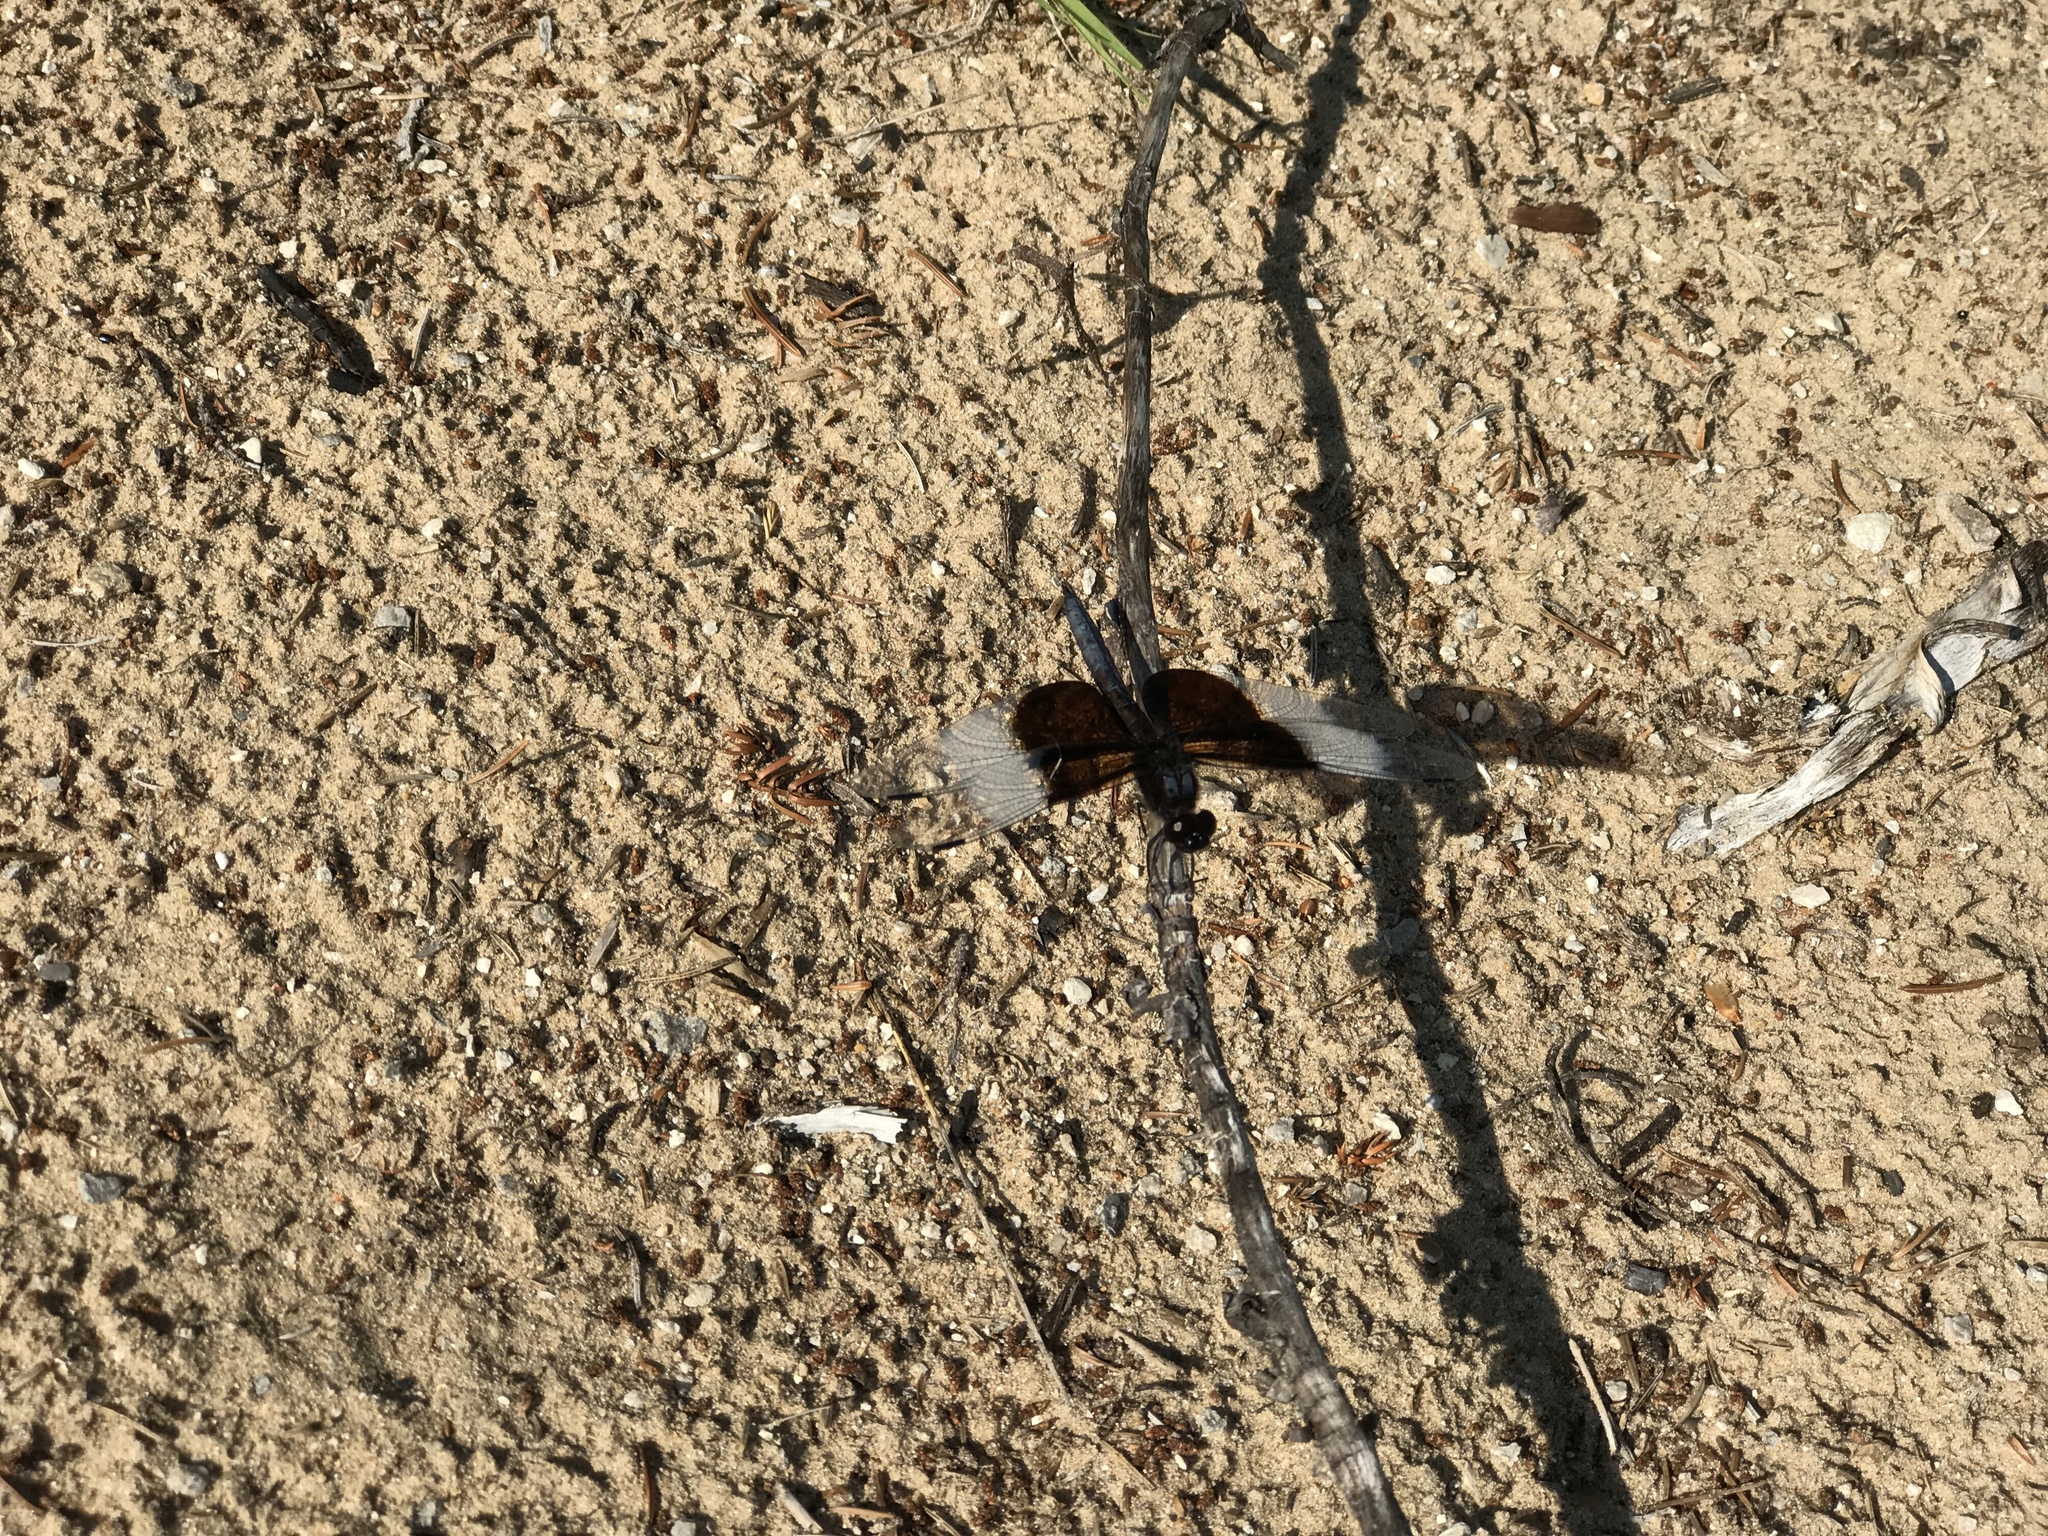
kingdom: Animalia
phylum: Arthropoda
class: Insecta
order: Odonata
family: Libellulidae
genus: Libellula
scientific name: Libellula luctuosa
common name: Widow skimmer
